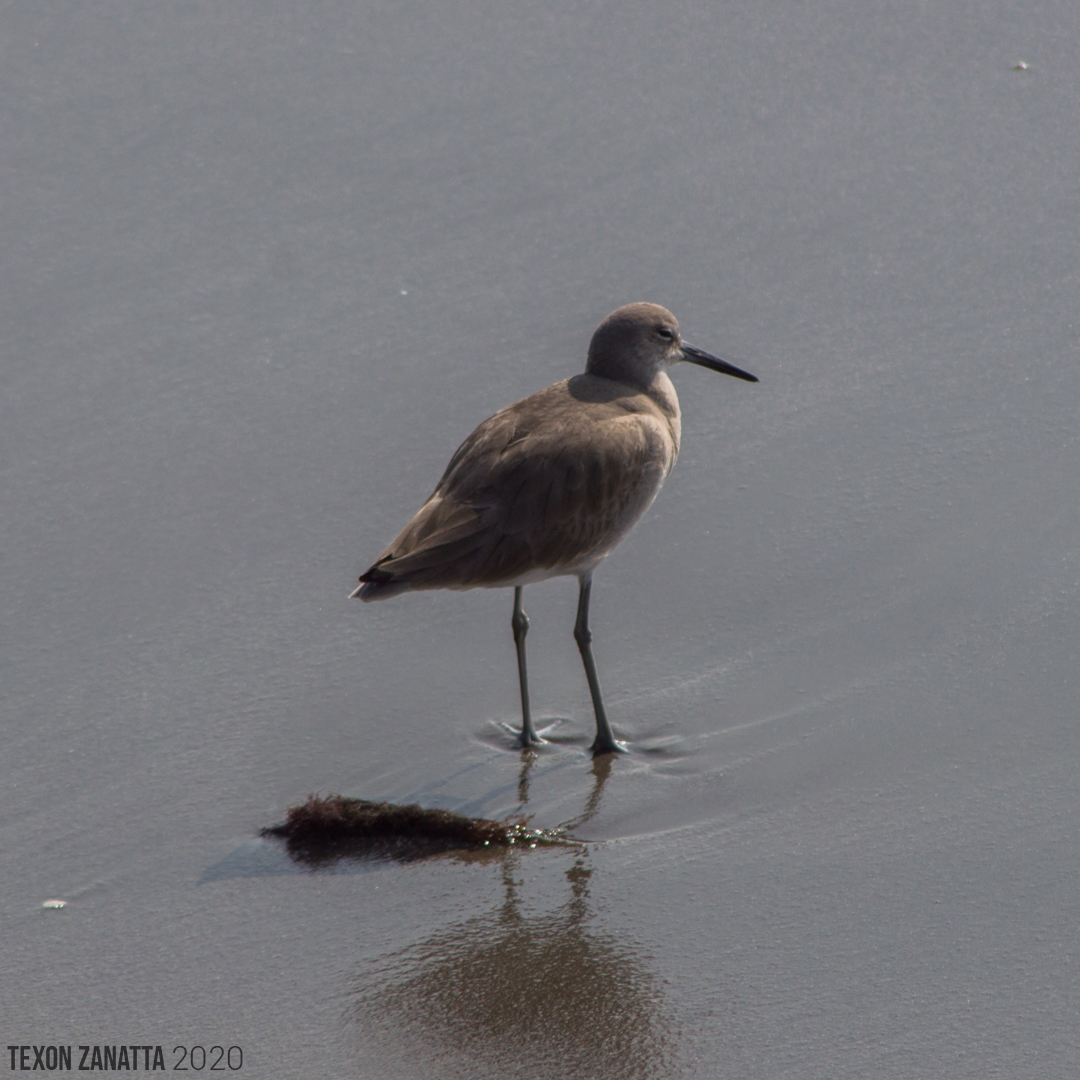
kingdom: Animalia
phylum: Chordata
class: Aves
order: Charadriiformes
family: Scolopacidae
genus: Tringa
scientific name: Tringa semipalmata
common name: Willet
